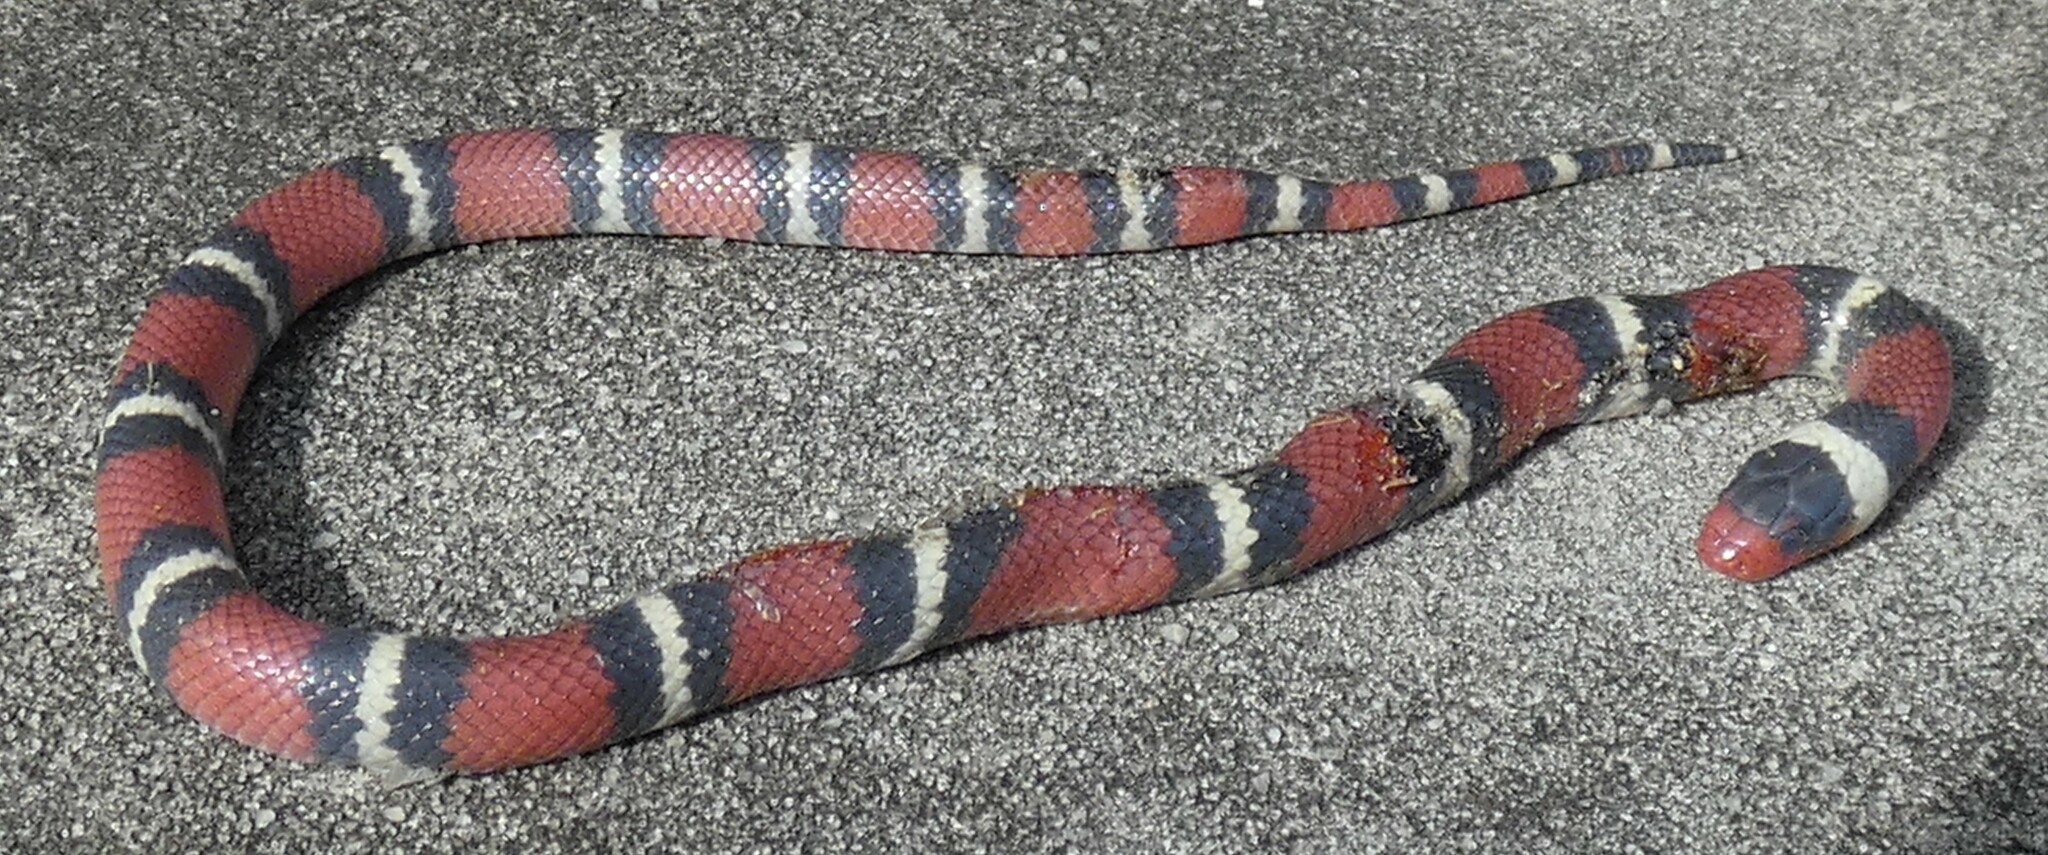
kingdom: Animalia
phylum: Chordata
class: Squamata
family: Colubridae
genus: Lampropeltis
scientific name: Lampropeltis elapsoides
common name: Scarlet kingsnake
